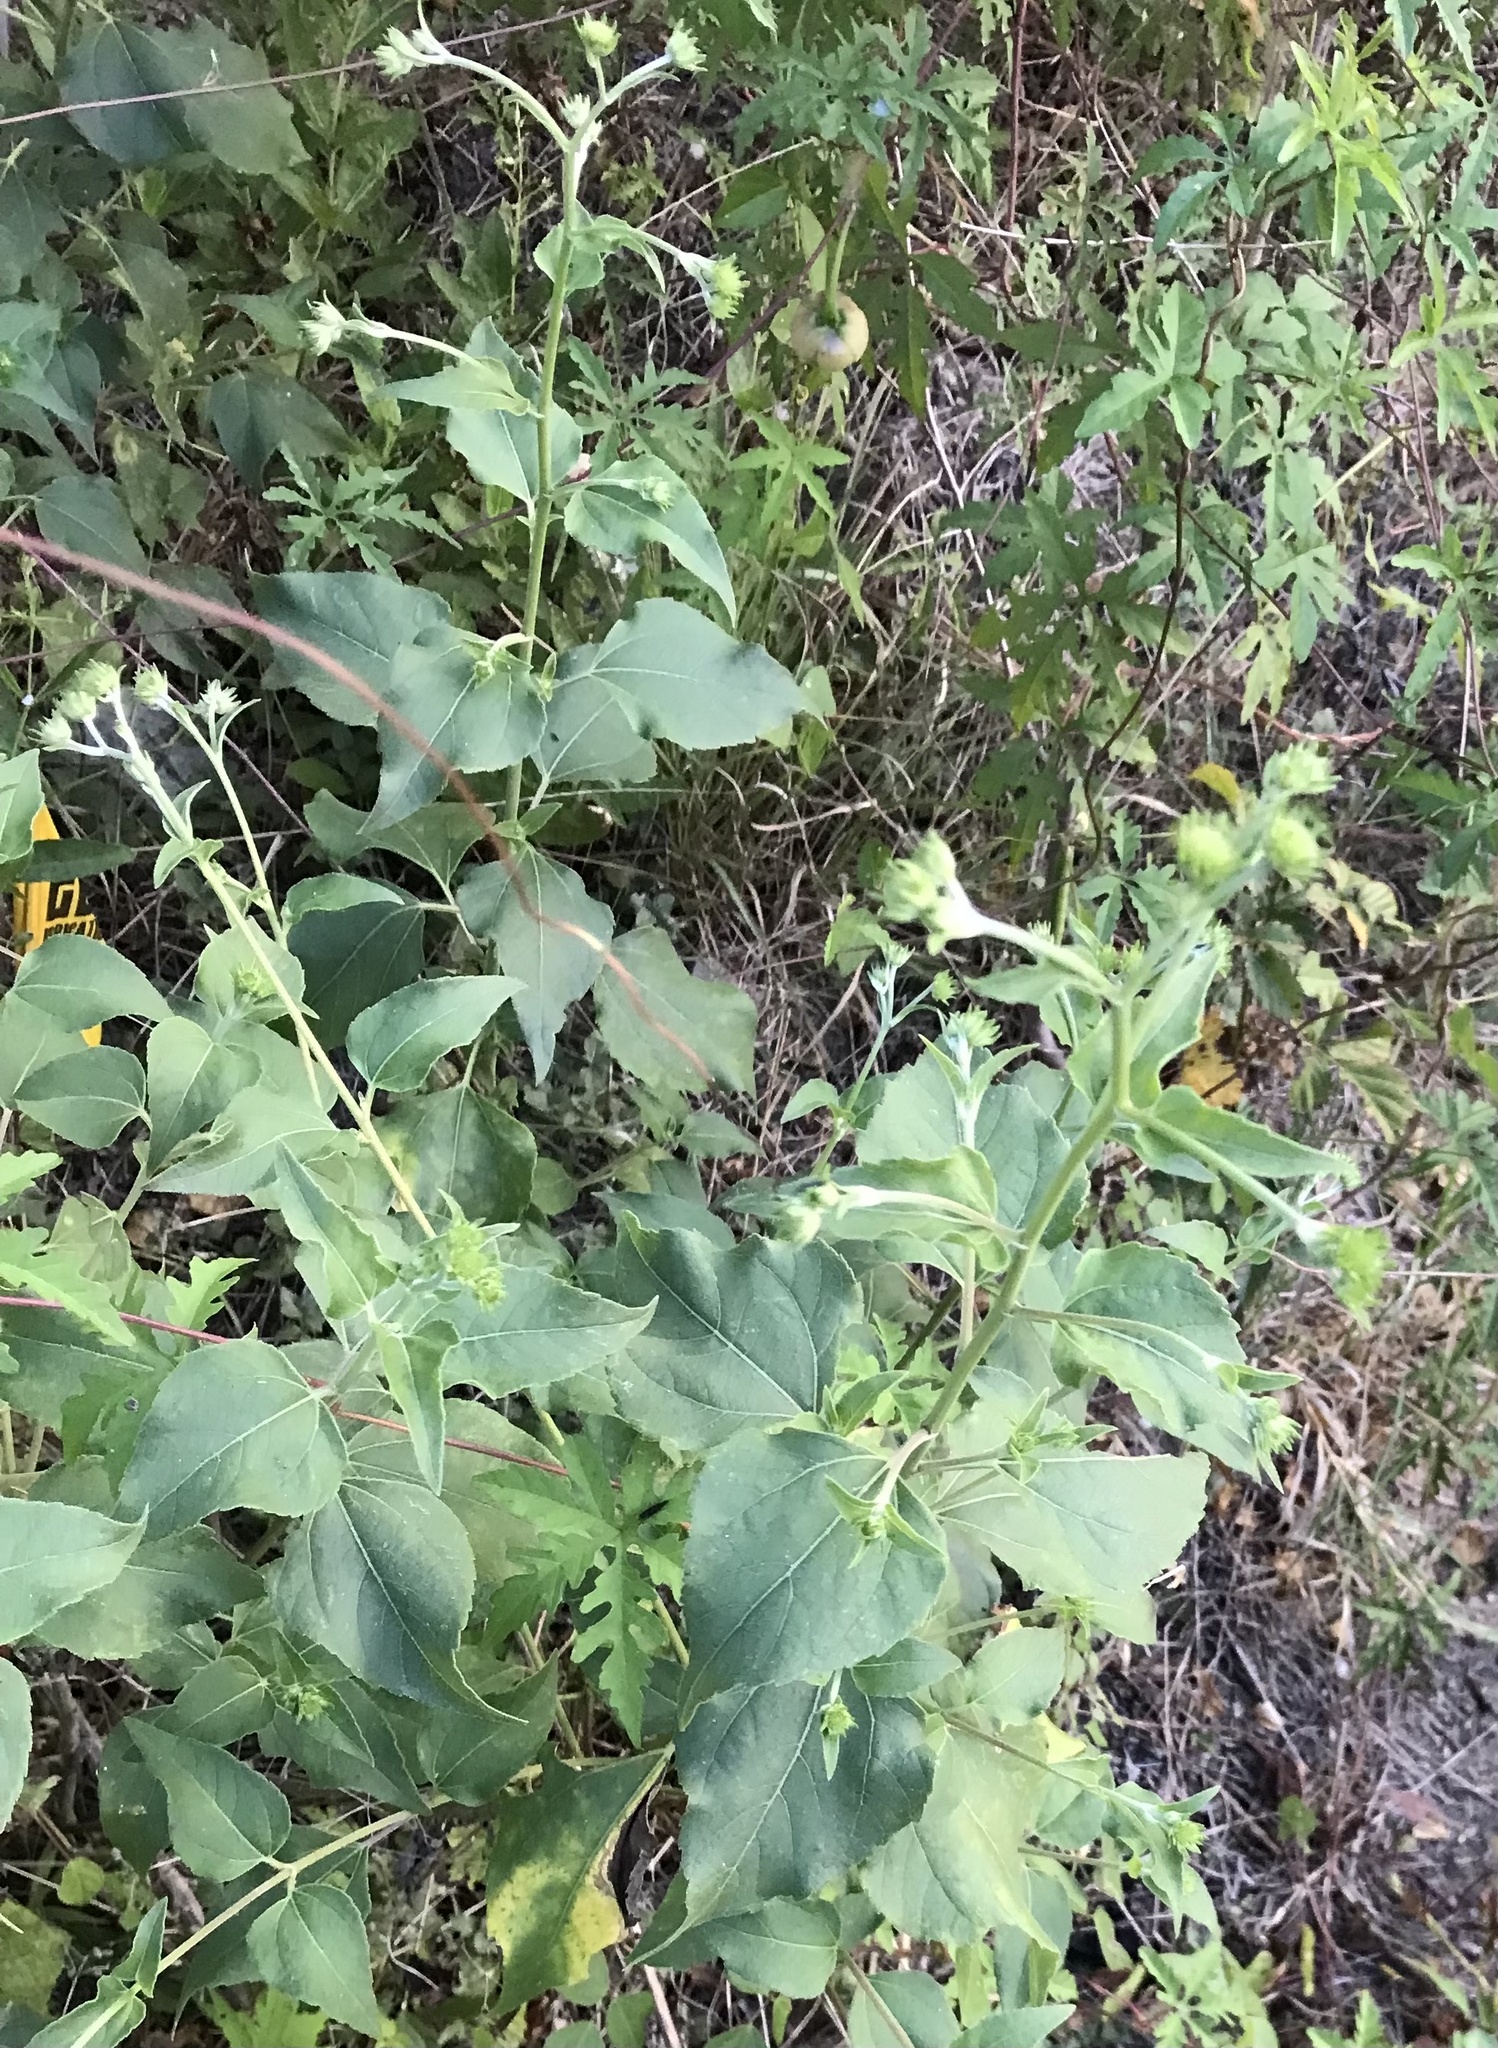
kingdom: Plantae
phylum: Tracheophyta
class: Magnoliopsida
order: Asterales
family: Asteraceae
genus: Viguiera
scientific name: Viguiera dentata
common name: Toothleaf
